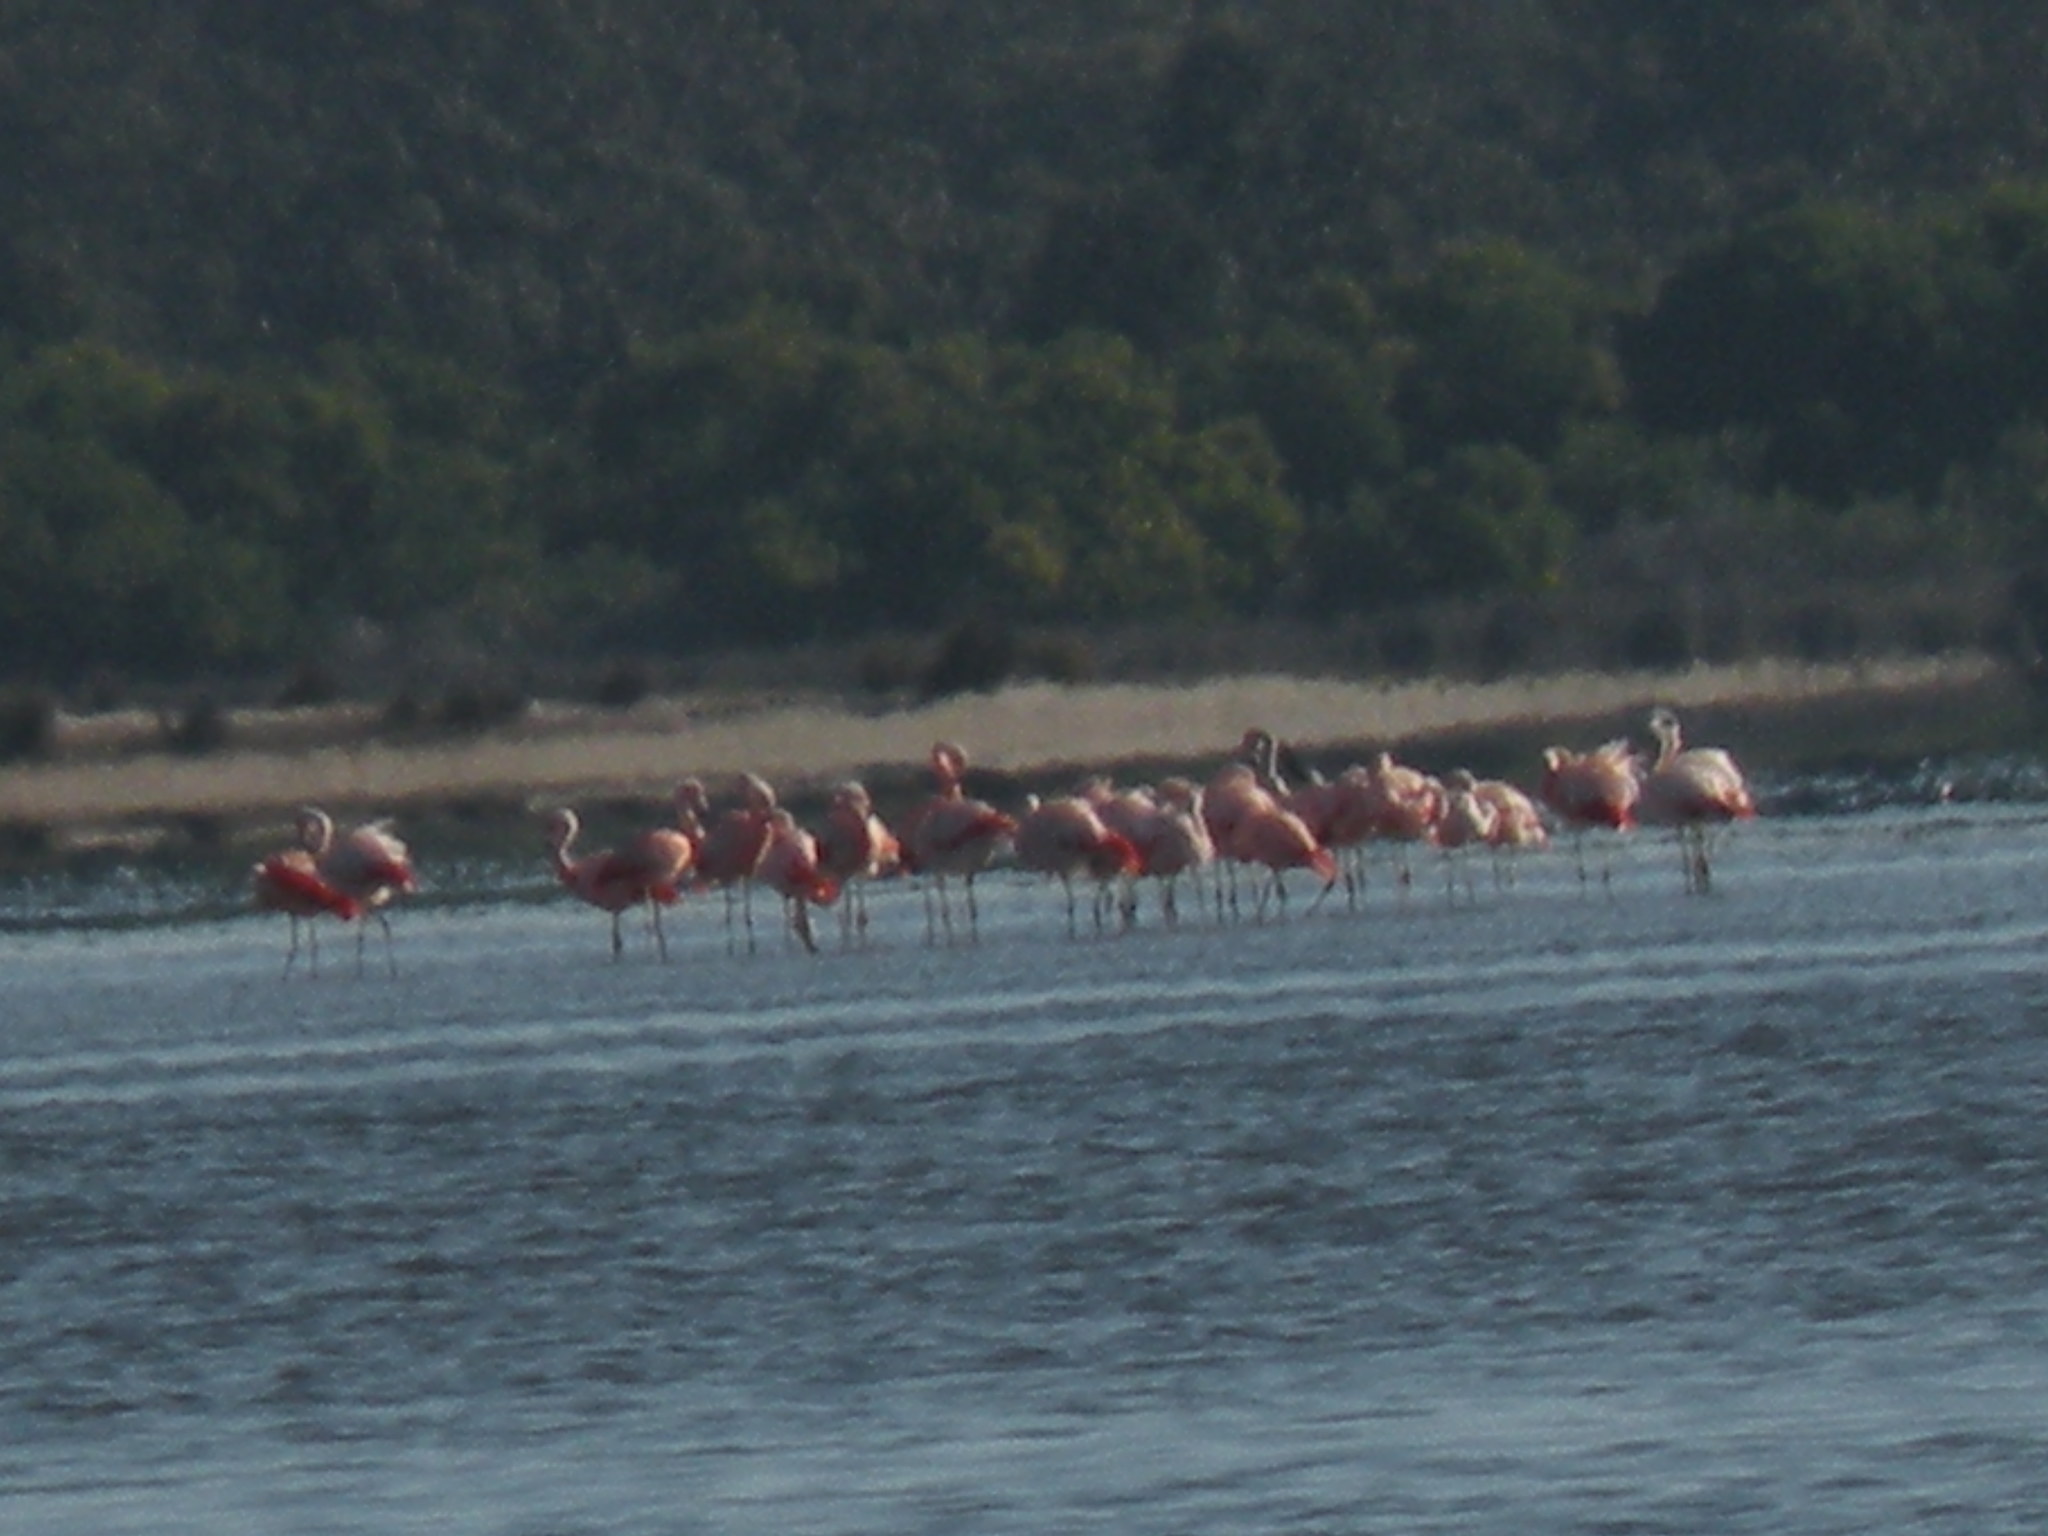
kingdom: Animalia
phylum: Chordata
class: Aves
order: Phoenicopteriformes
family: Phoenicopteridae
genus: Phoenicopterus
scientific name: Phoenicopterus chilensis
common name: Chilean flamingo
